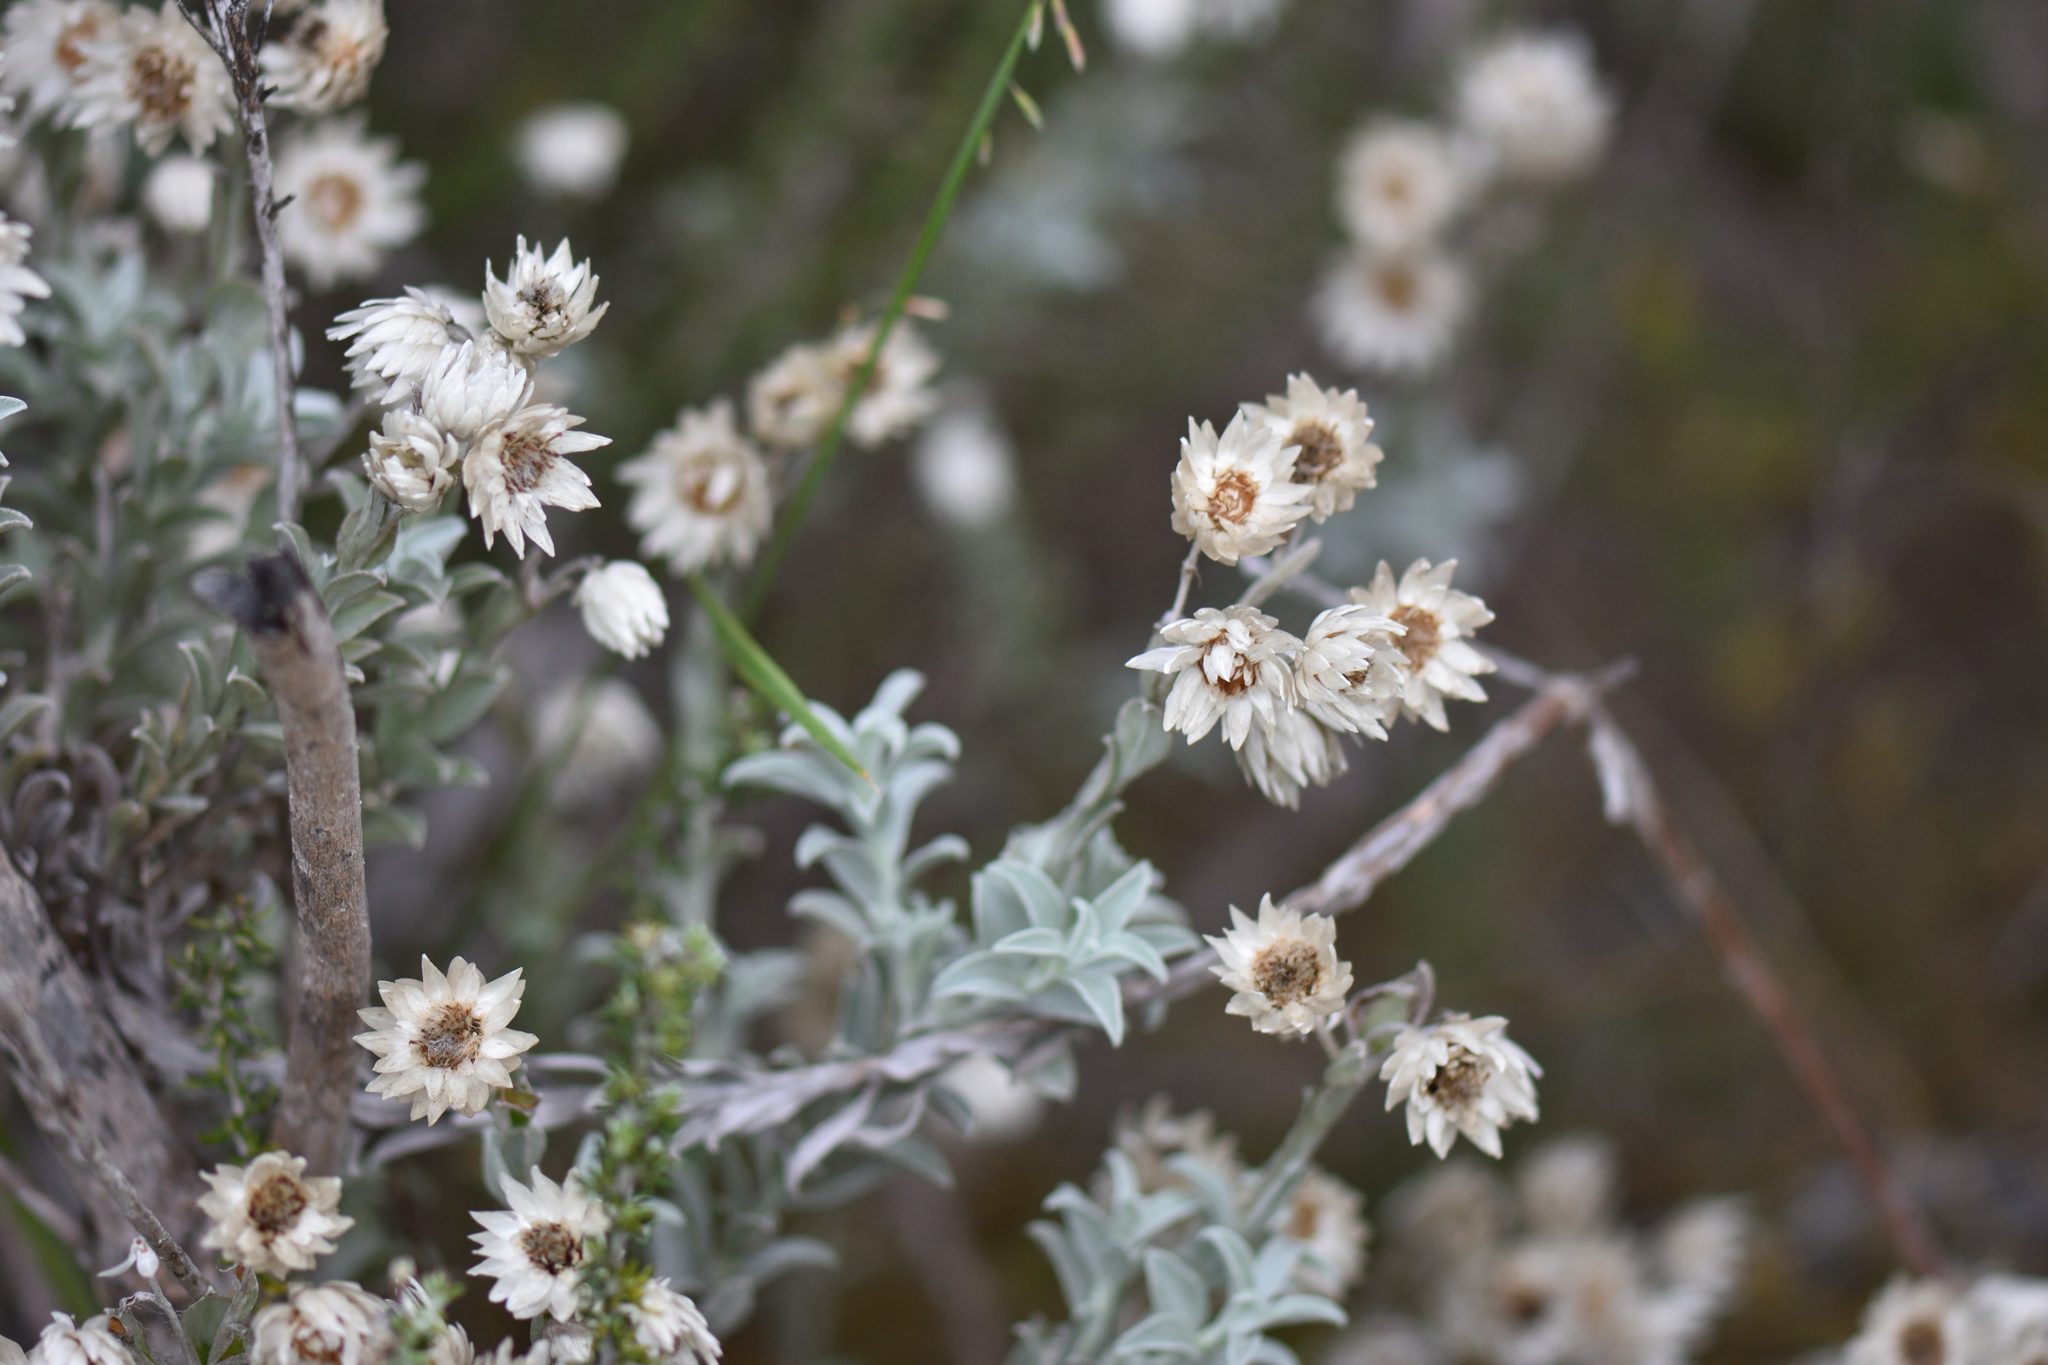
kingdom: Plantae
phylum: Tracheophyta
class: Magnoliopsida
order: Asterales
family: Asteraceae
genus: Achyranthemum
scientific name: Achyranthemum argenteum
